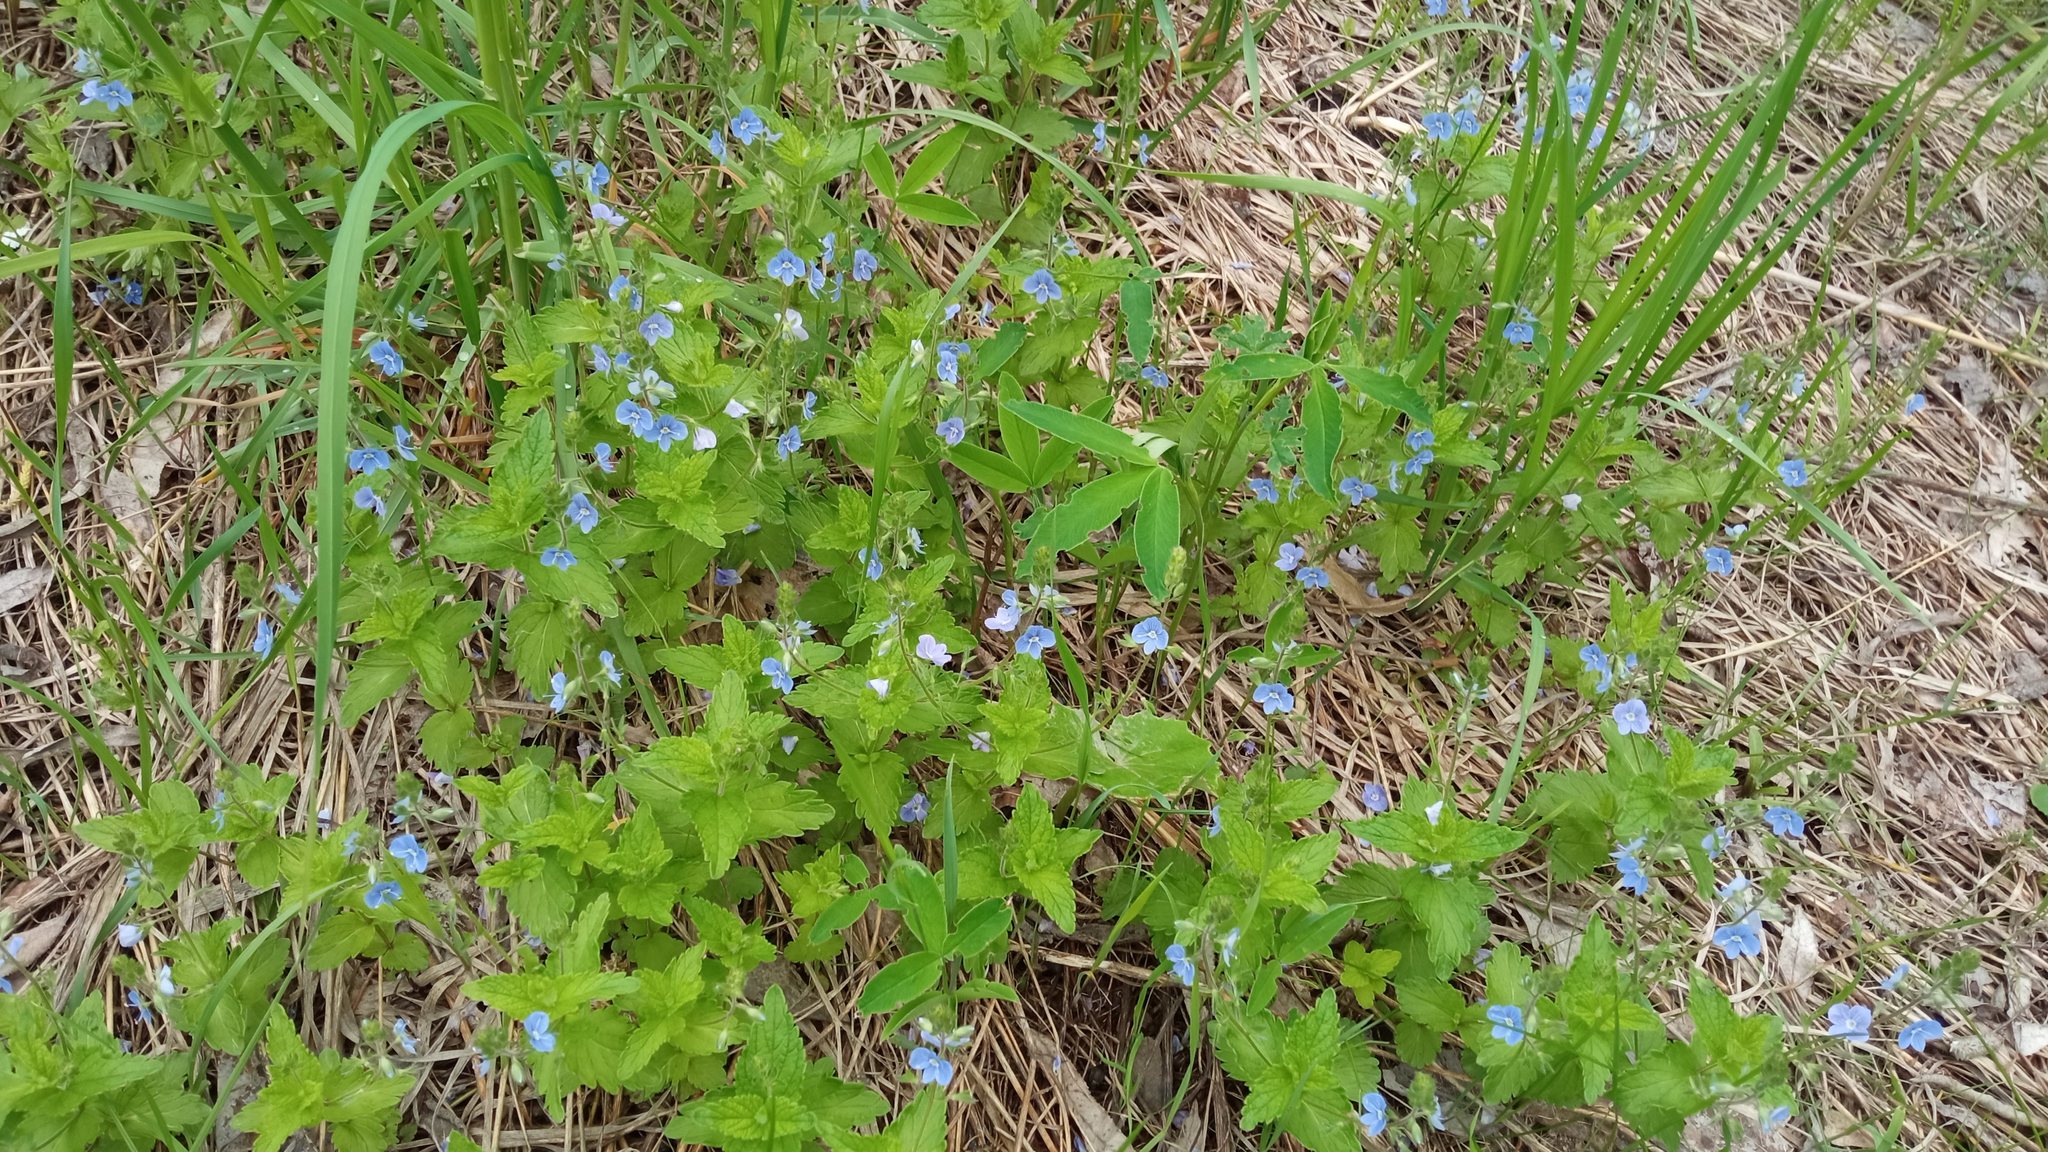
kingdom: Plantae
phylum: Tracheophyta
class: Magnoliopsida
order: Lamiales
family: Plantaginaceae
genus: Veronica
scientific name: Veronica chamaedrys
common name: Germander speedwell
